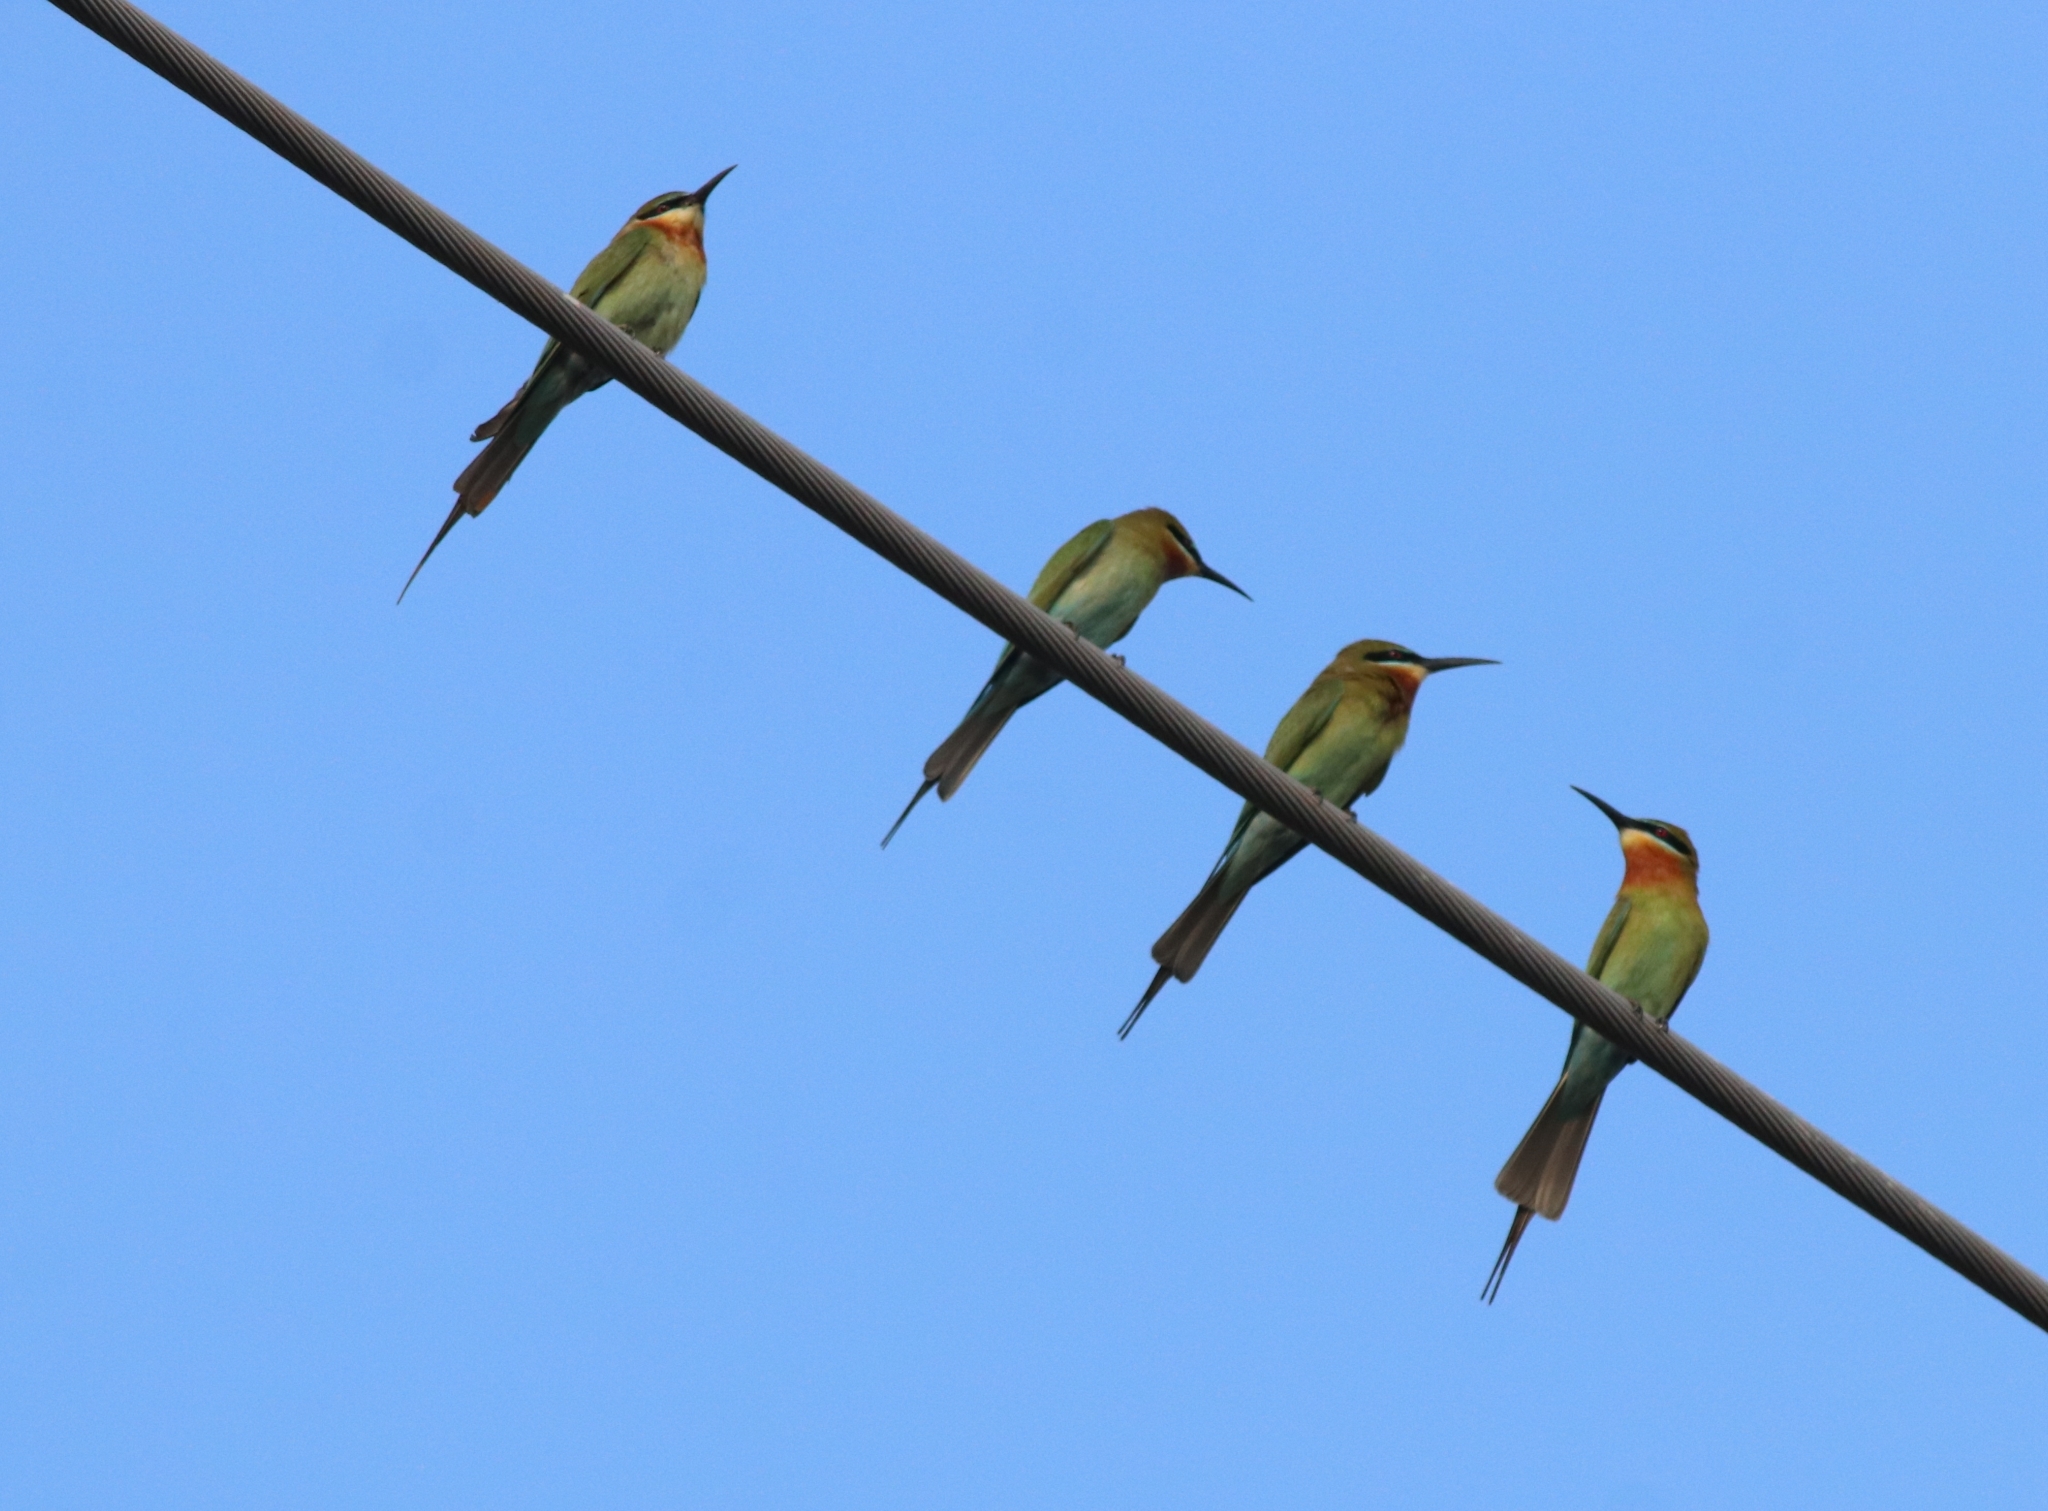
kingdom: Animalia
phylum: Chordata
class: Aves
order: Coraciiformes
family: Meropidae
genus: Merops
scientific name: Merops philippinus
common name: Blue-tailed bee-eater
